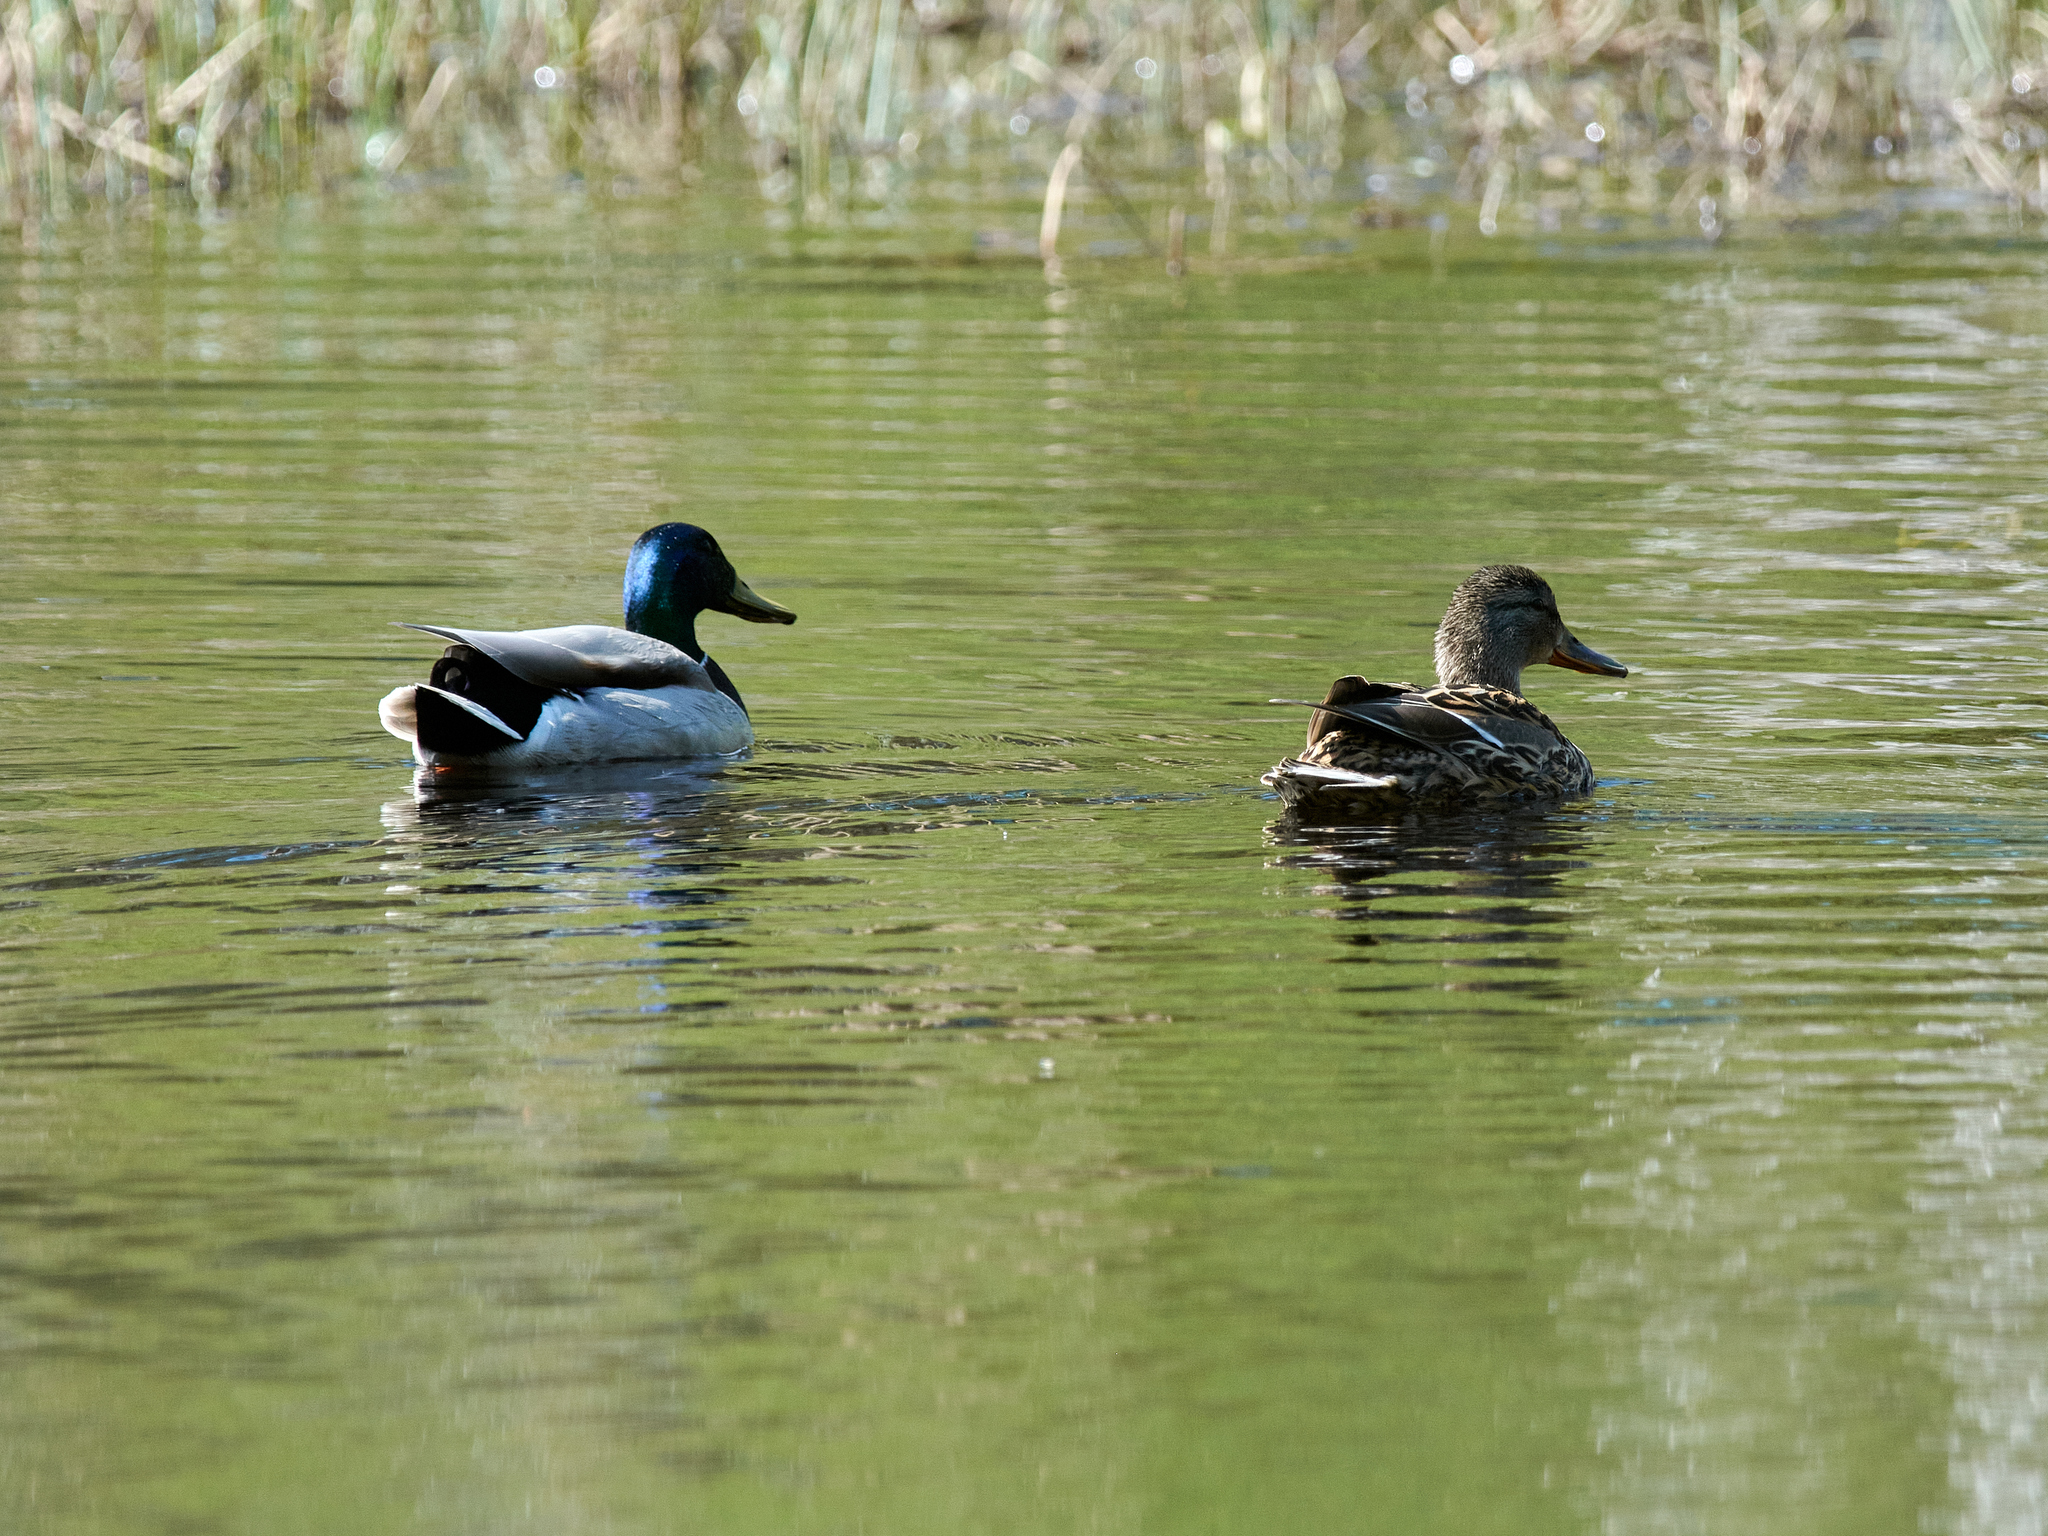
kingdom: Animalia
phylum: Chordata
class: Aves
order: Anseriformes
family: Anatidae
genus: Anas
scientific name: Anas platyrhynchos
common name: Mallard
